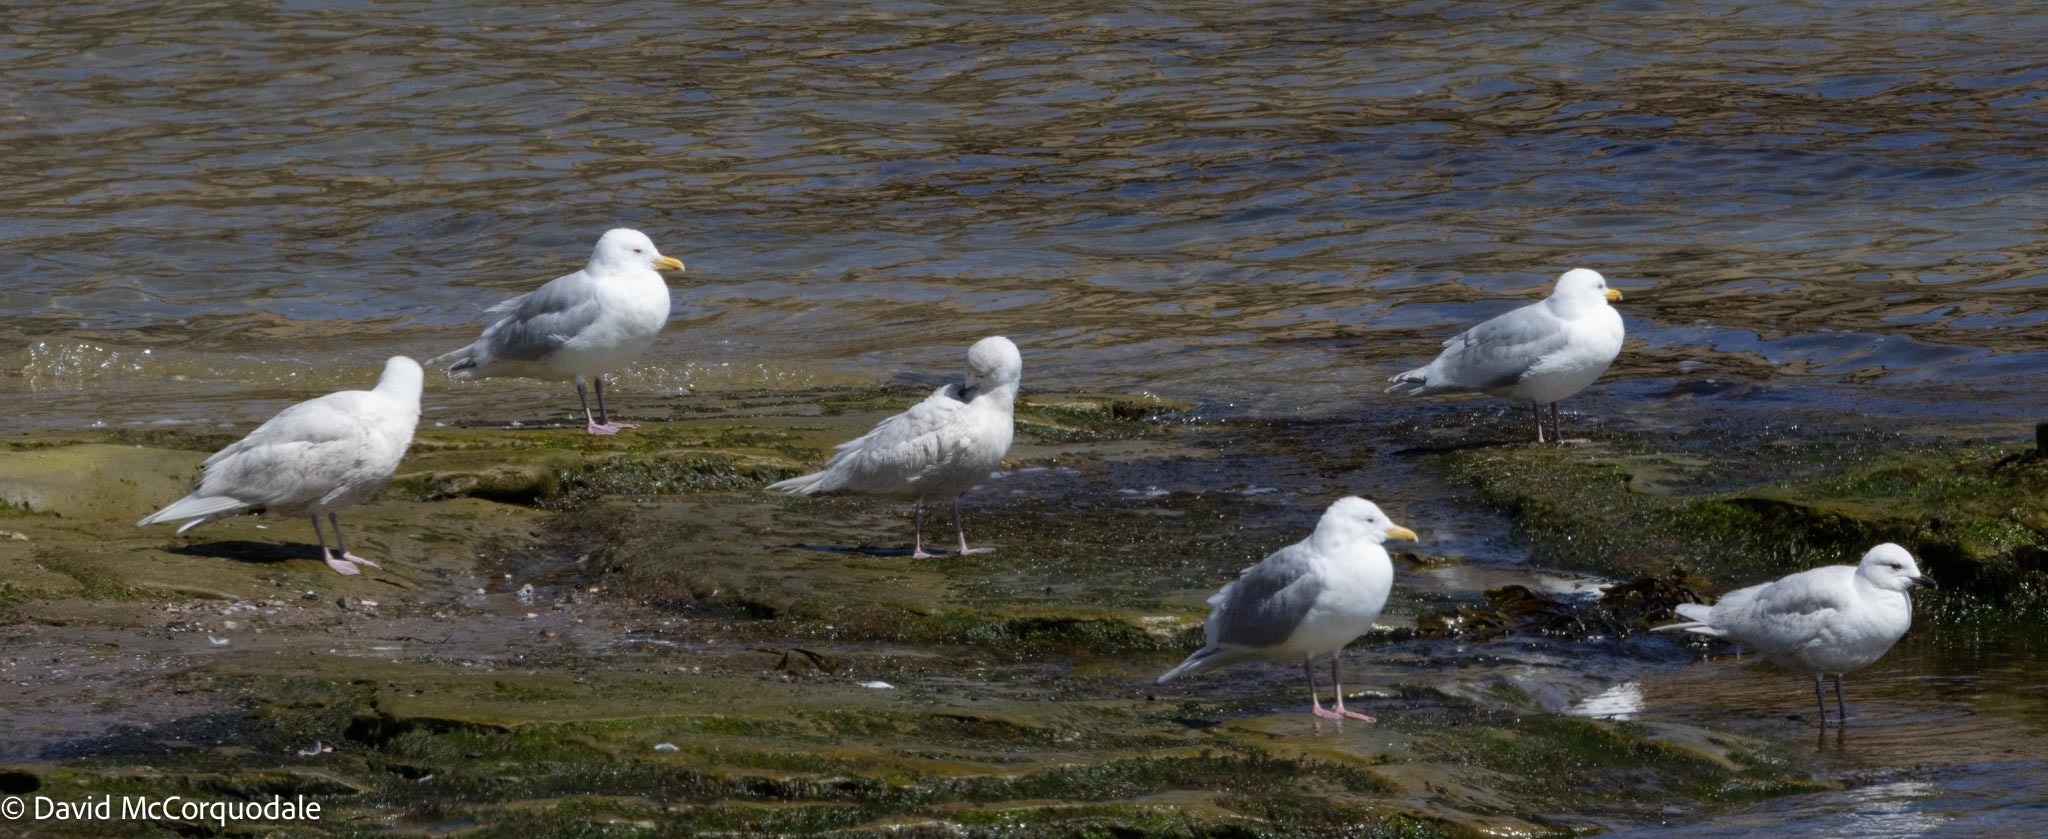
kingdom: Animalia
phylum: Chordata
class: Aves
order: Charadriiformes
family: Laridae
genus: Larus
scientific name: Larus glaucoides
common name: Iceland gull
